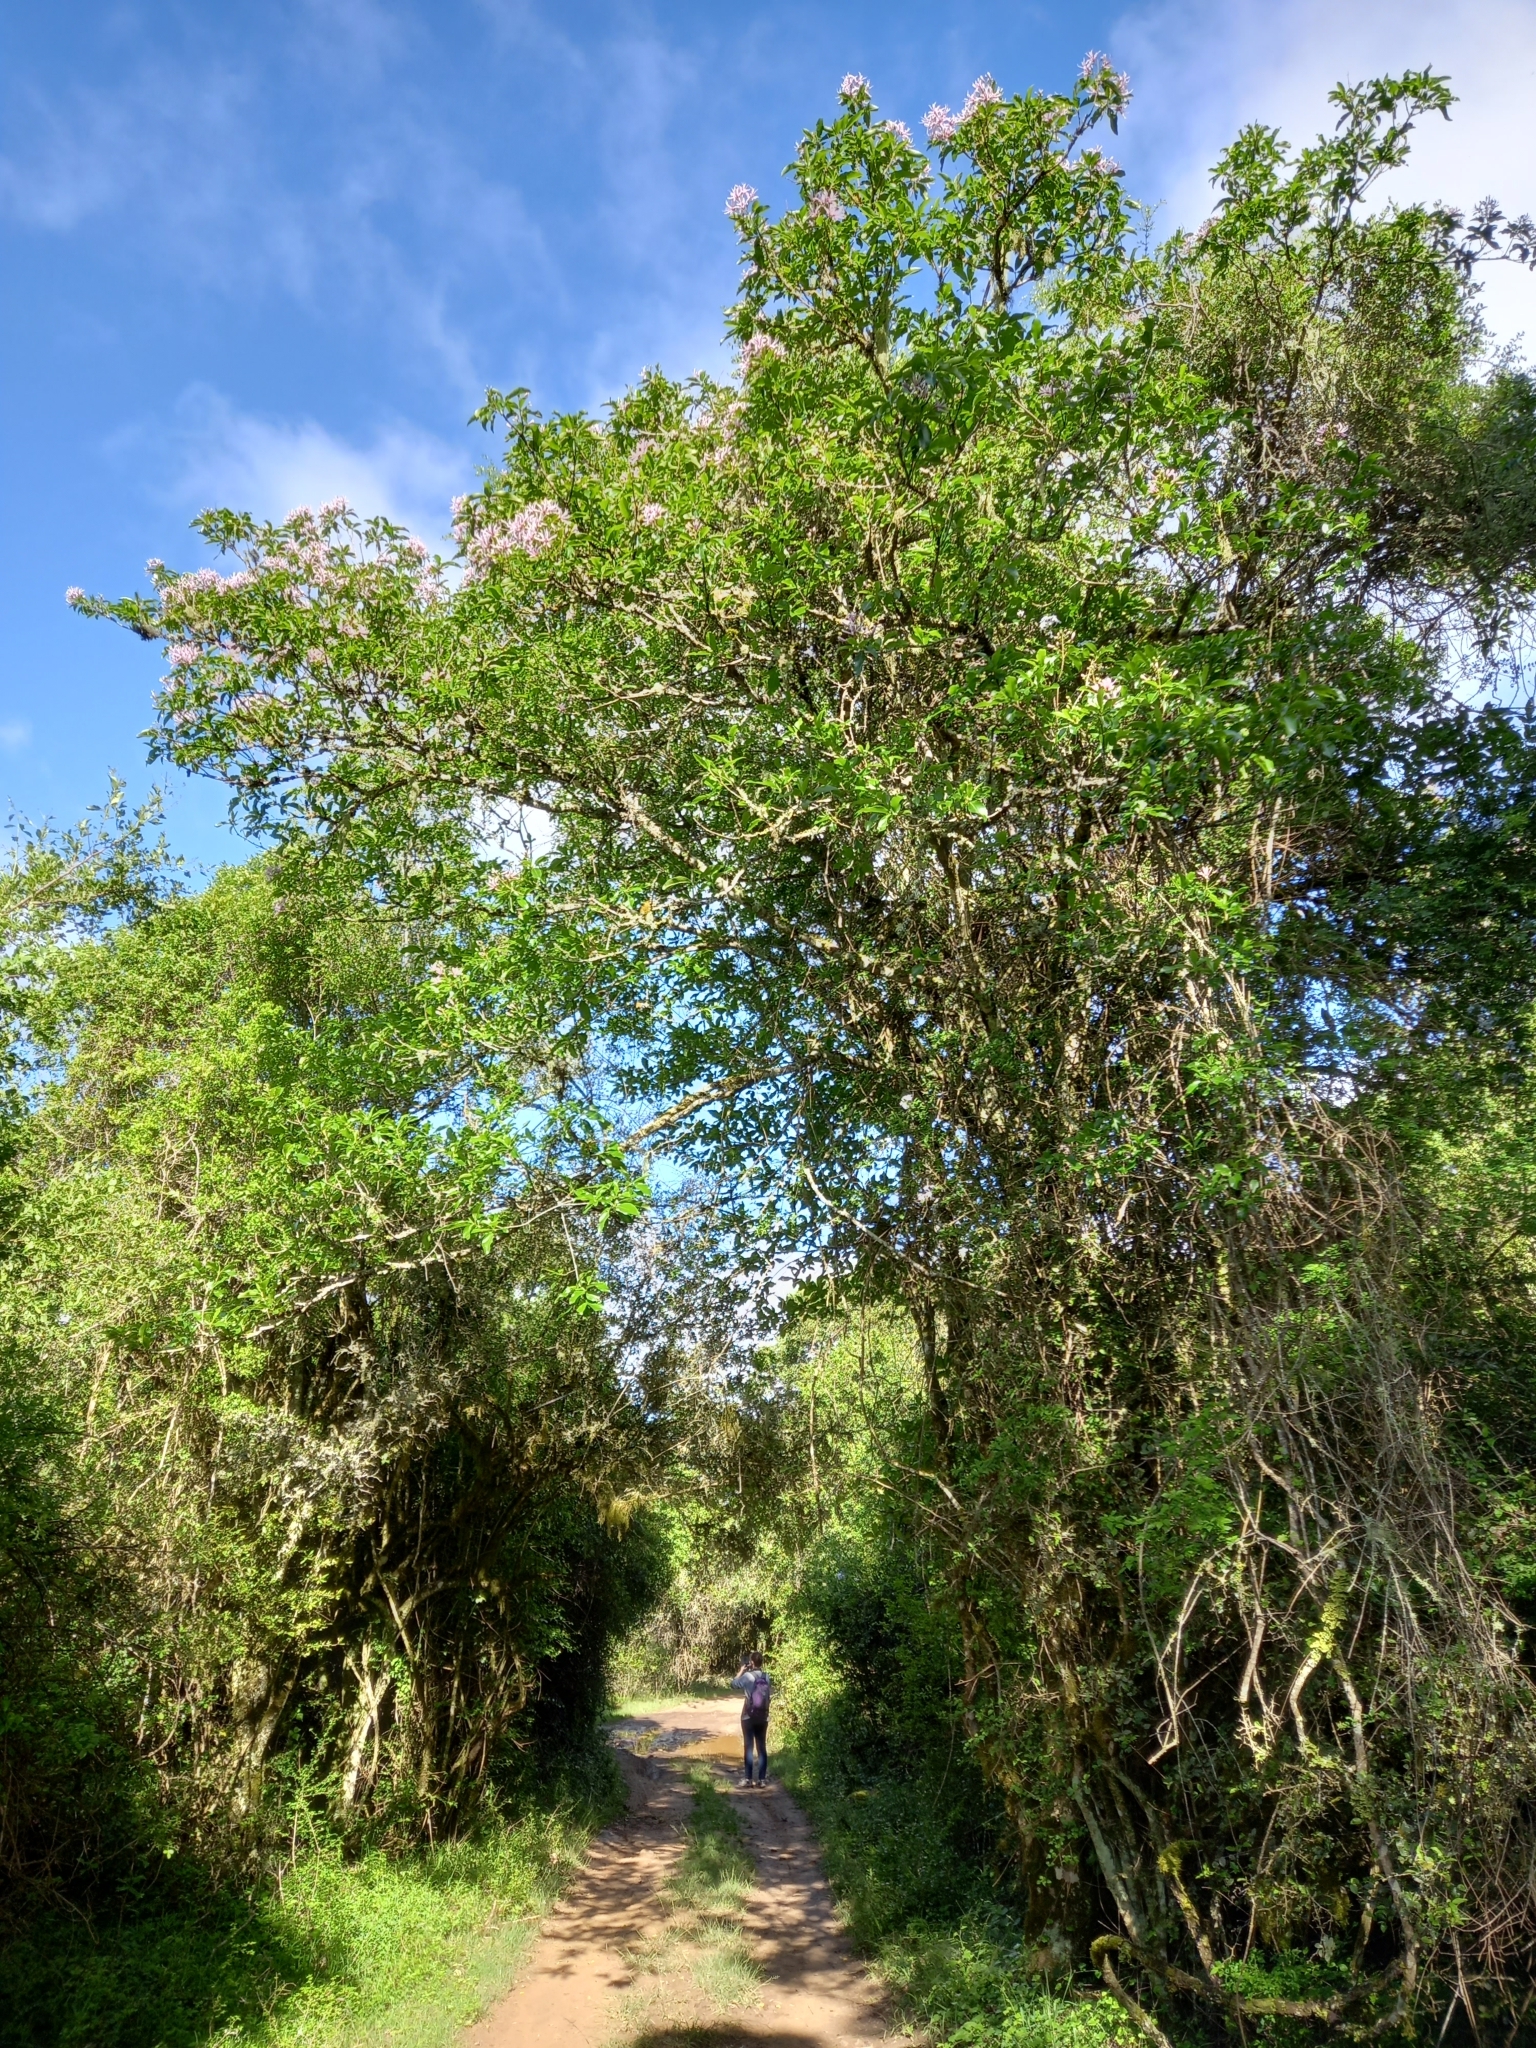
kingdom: Plantae
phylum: Tracheophyta
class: Magnoliopsida
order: Sapindales
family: Rutaceae
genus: Calodendrum
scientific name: Calodendrum capense
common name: Cape chestnut
